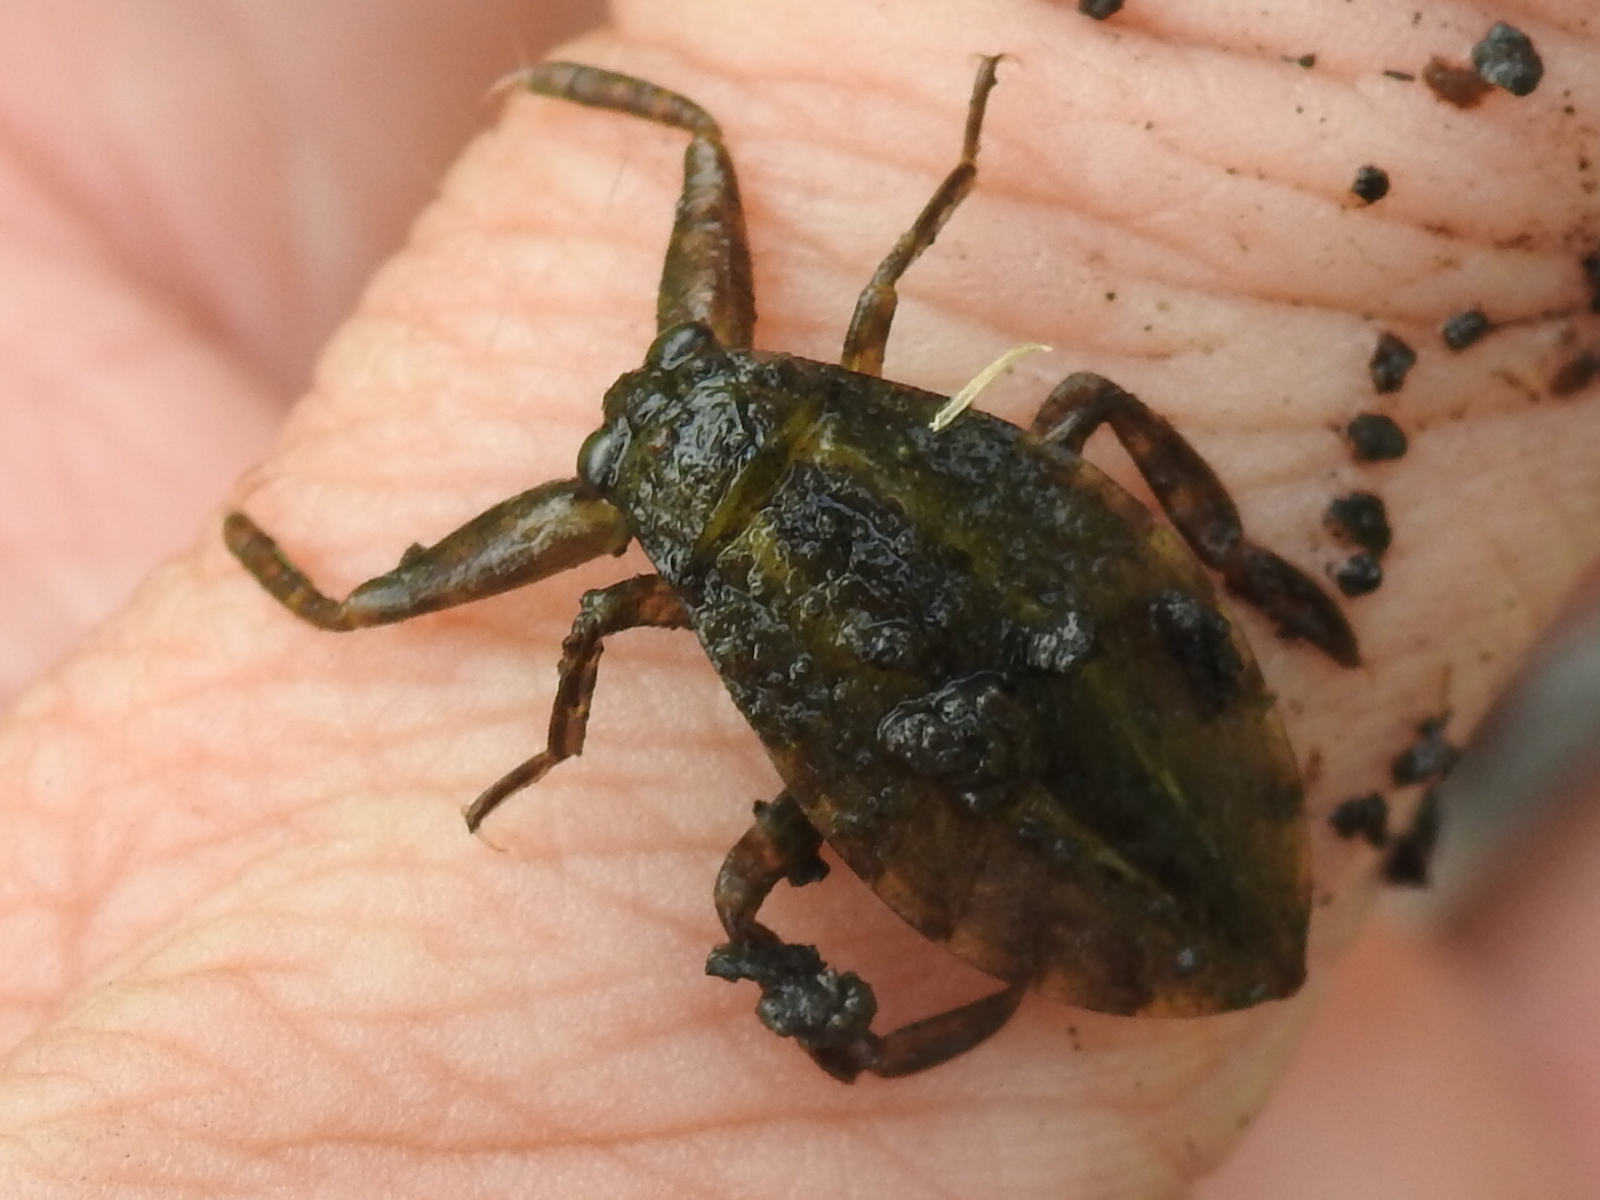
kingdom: Animalia
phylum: Arthropoda
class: Insecta
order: Hemiptera
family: Belostomatidae
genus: Lethocerus
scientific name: Lethocerus
